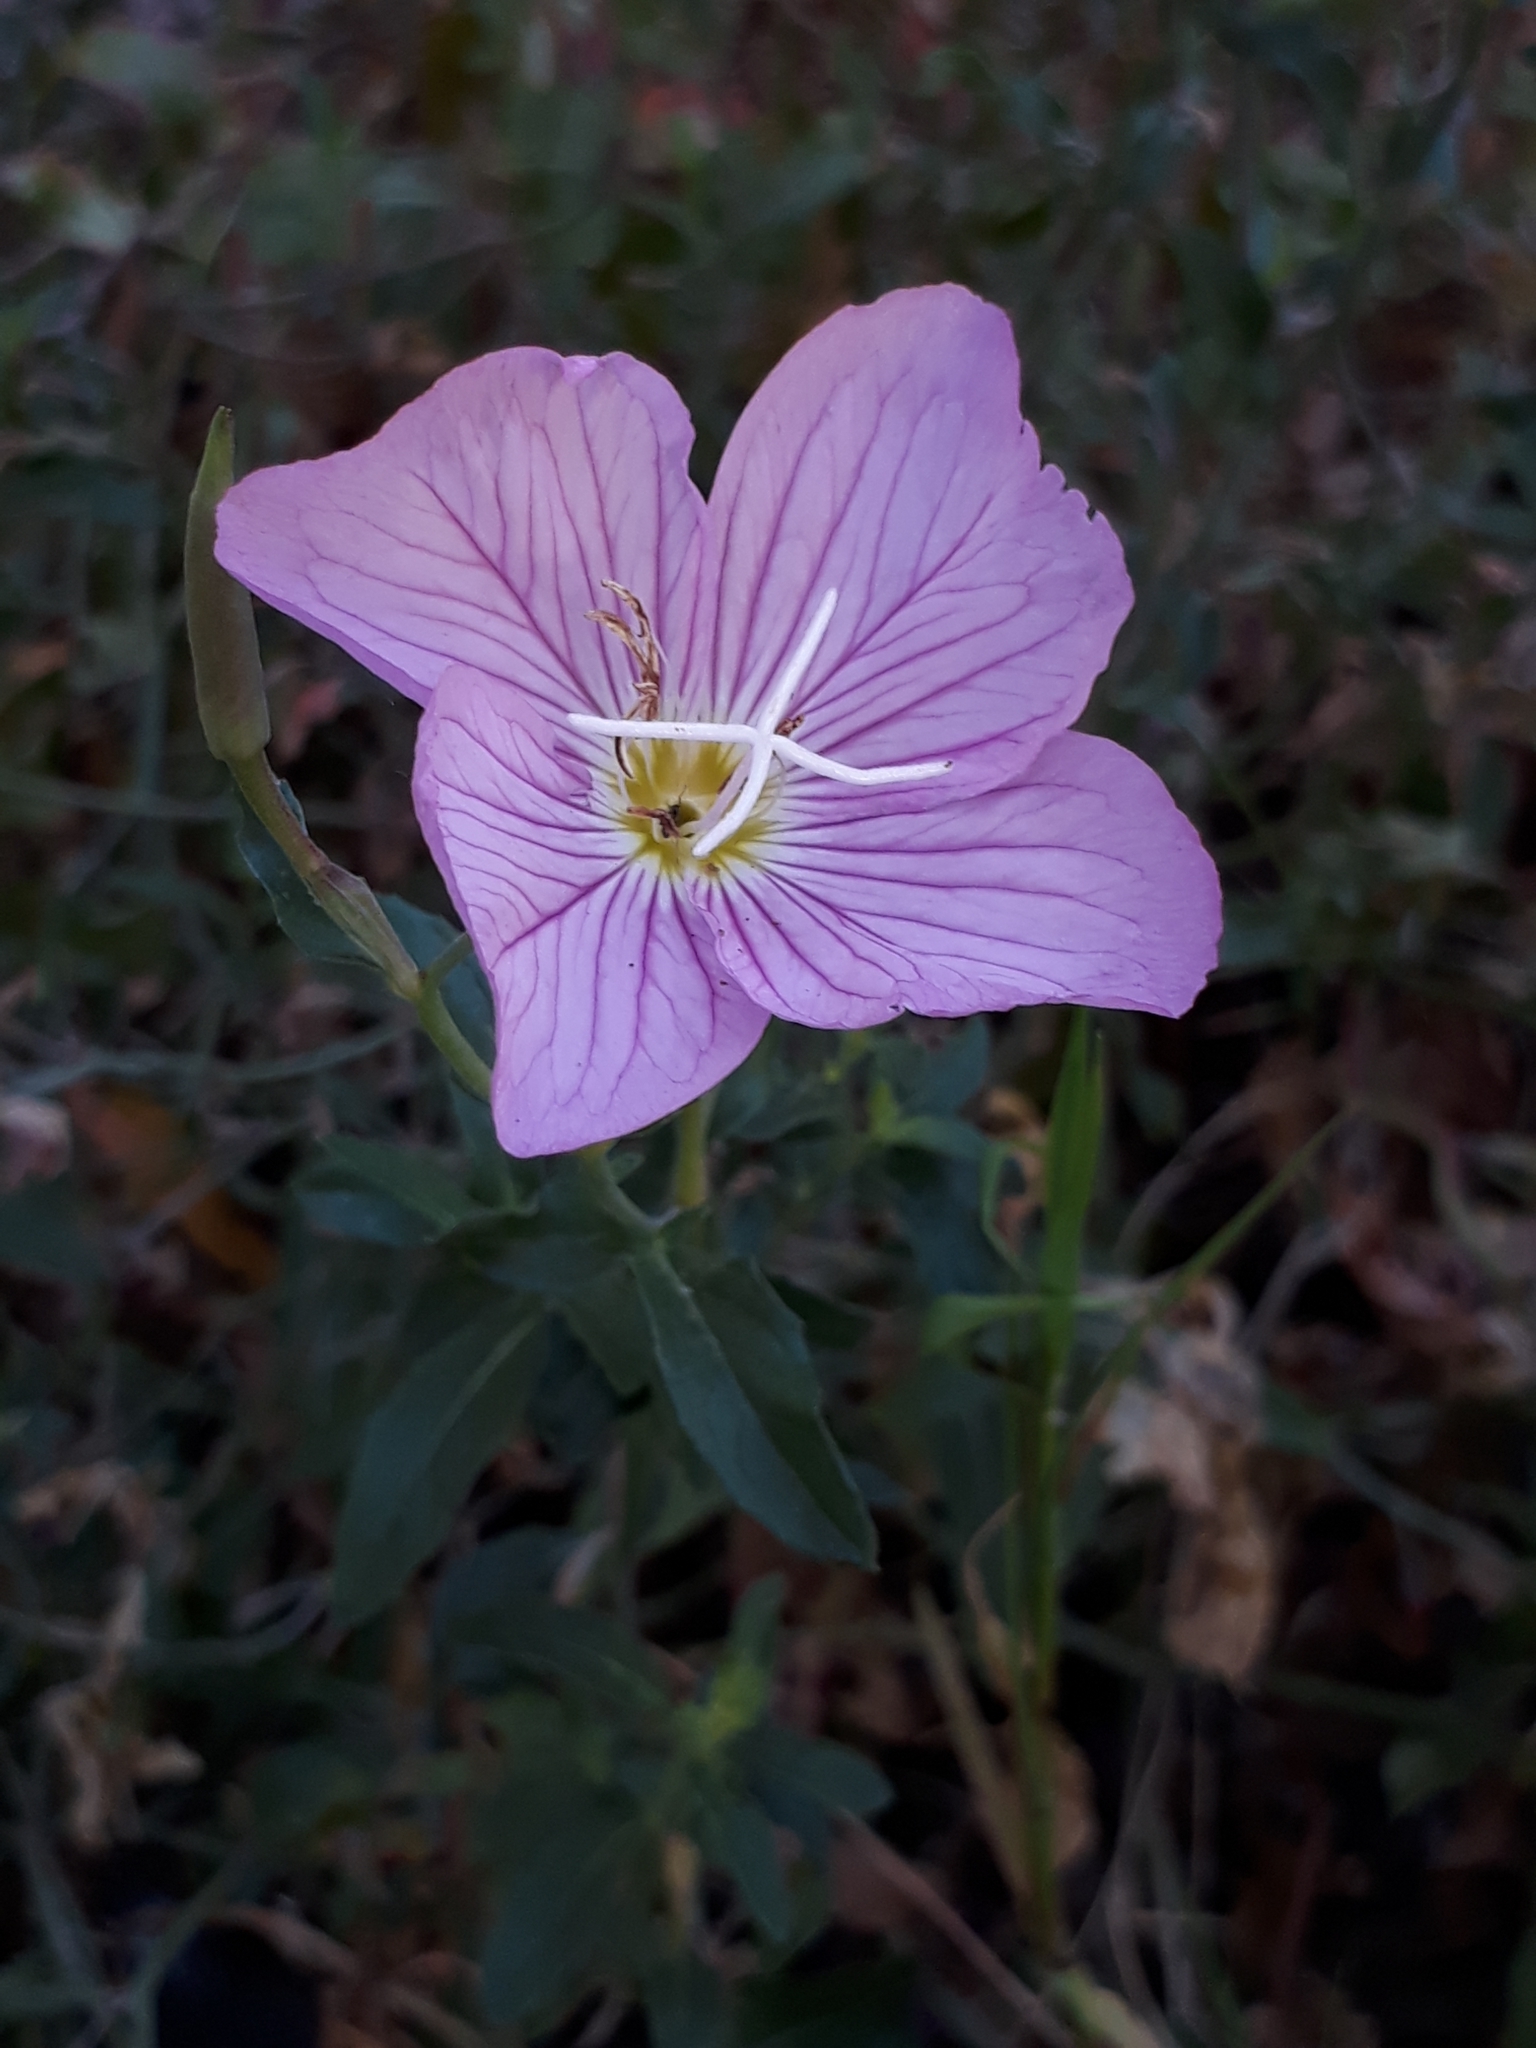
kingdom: Plantae
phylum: Tracheophyta
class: Magnoliopsida
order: Myrtales
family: Onagraceae
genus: Oenothera
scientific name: Oenothera speciosa
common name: White evening-primrose
